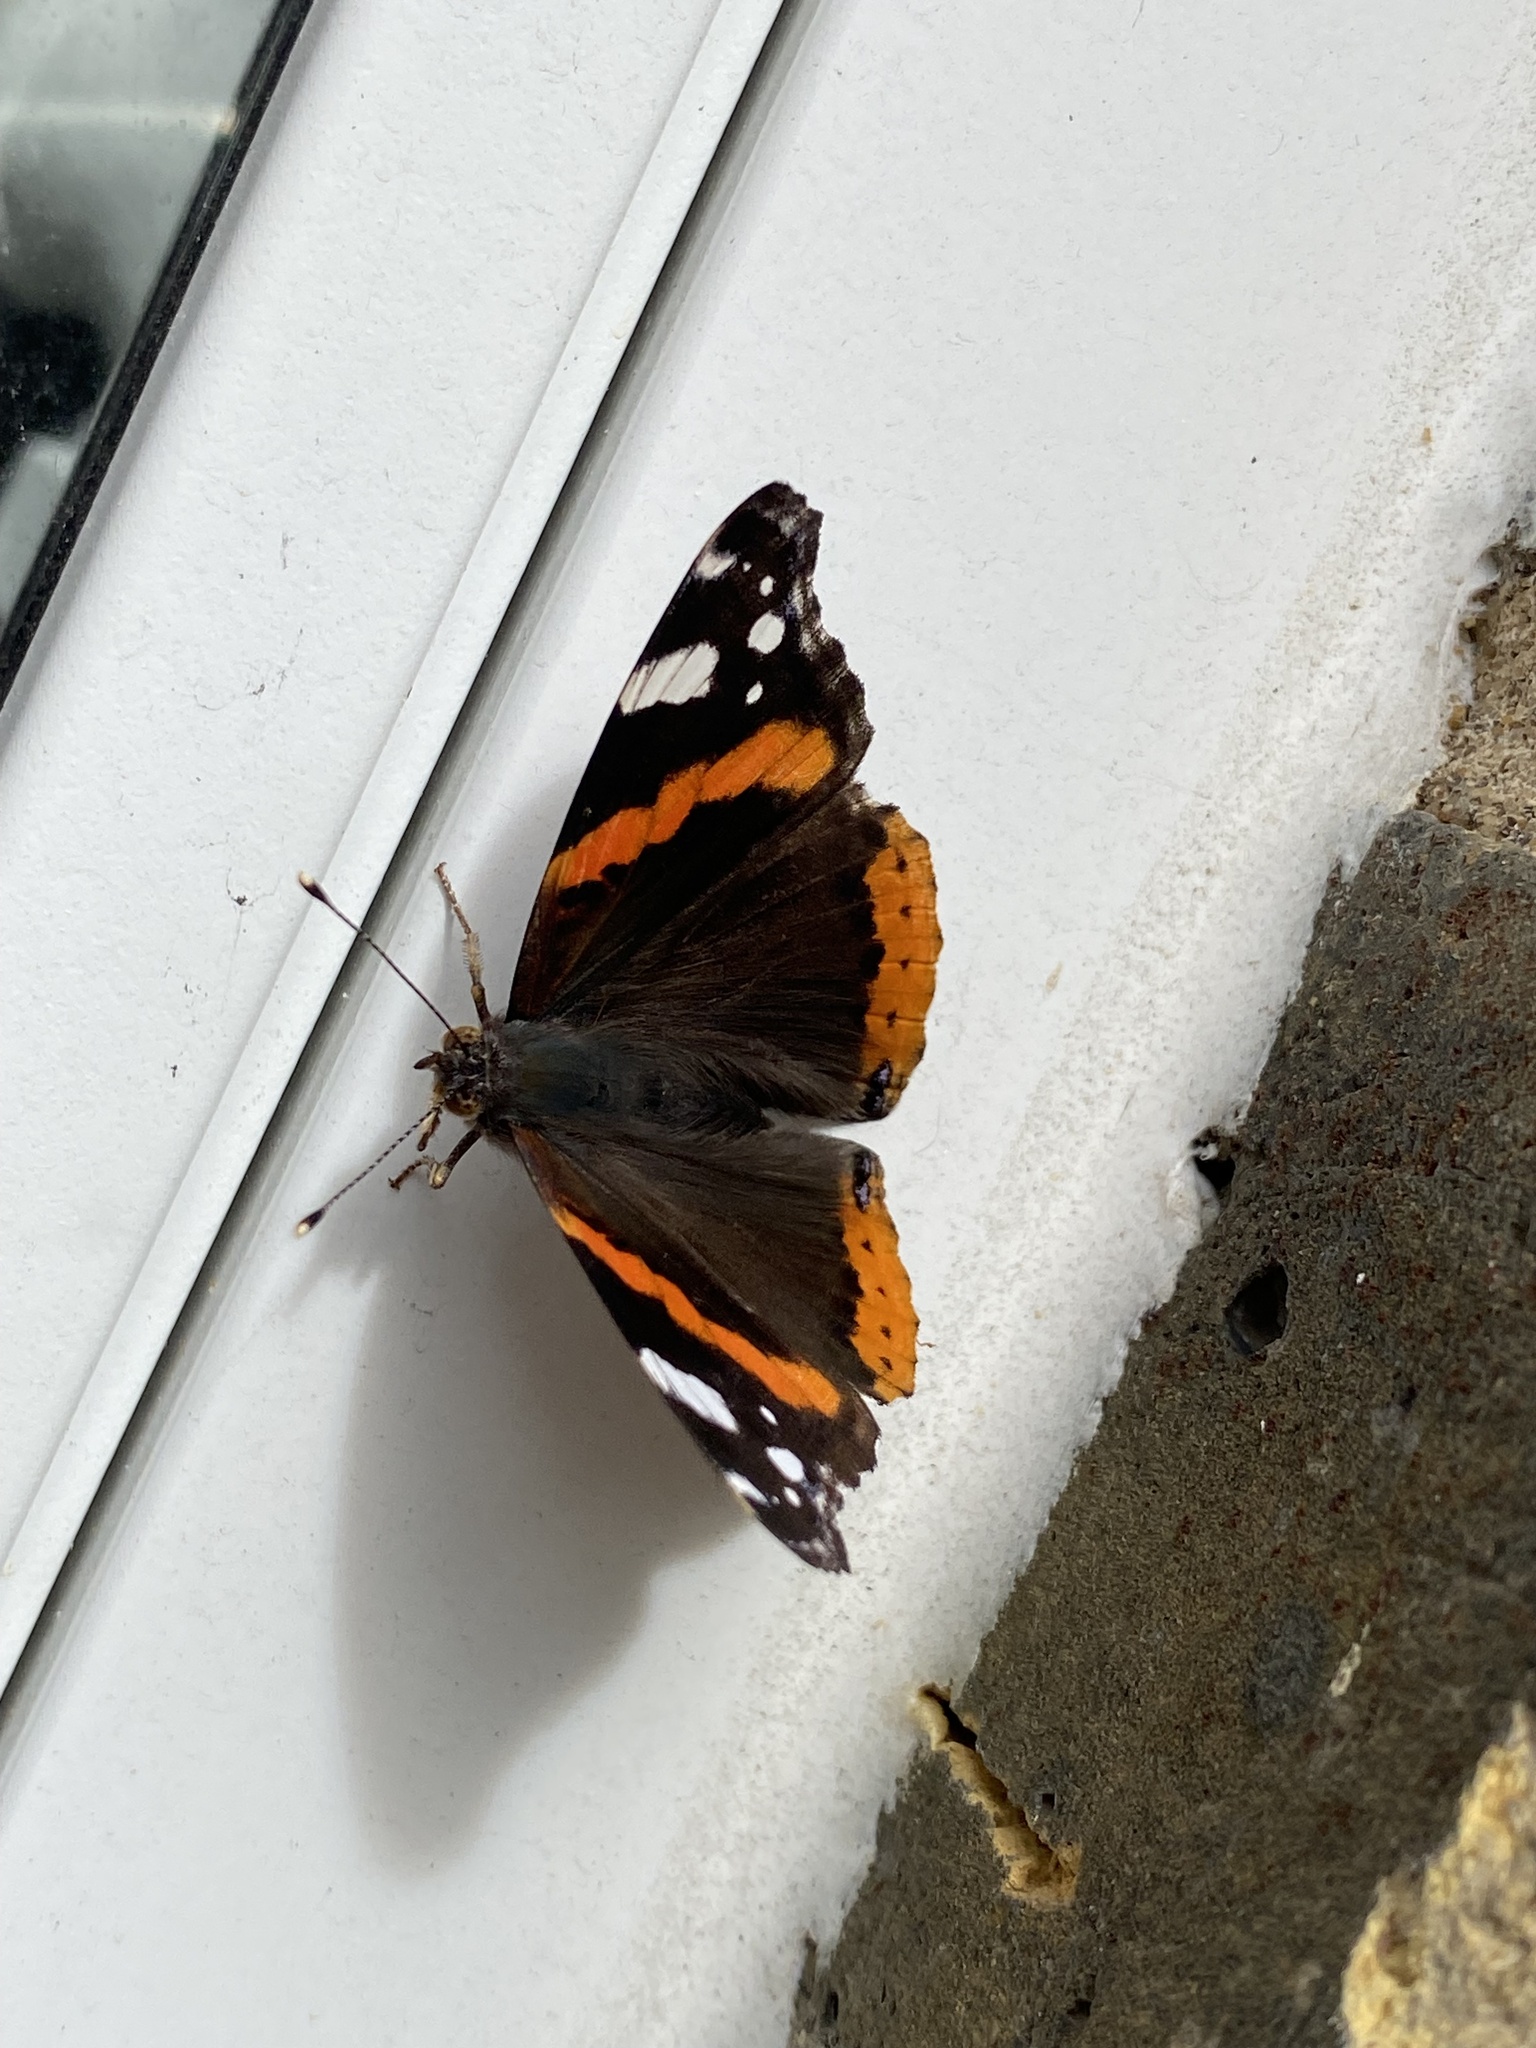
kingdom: Animalia
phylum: Arthropoda
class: Insecta
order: Lepidoptera
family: Nymphalidae
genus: Vanessa
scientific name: Vanessa atalanta
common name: Red admiral
